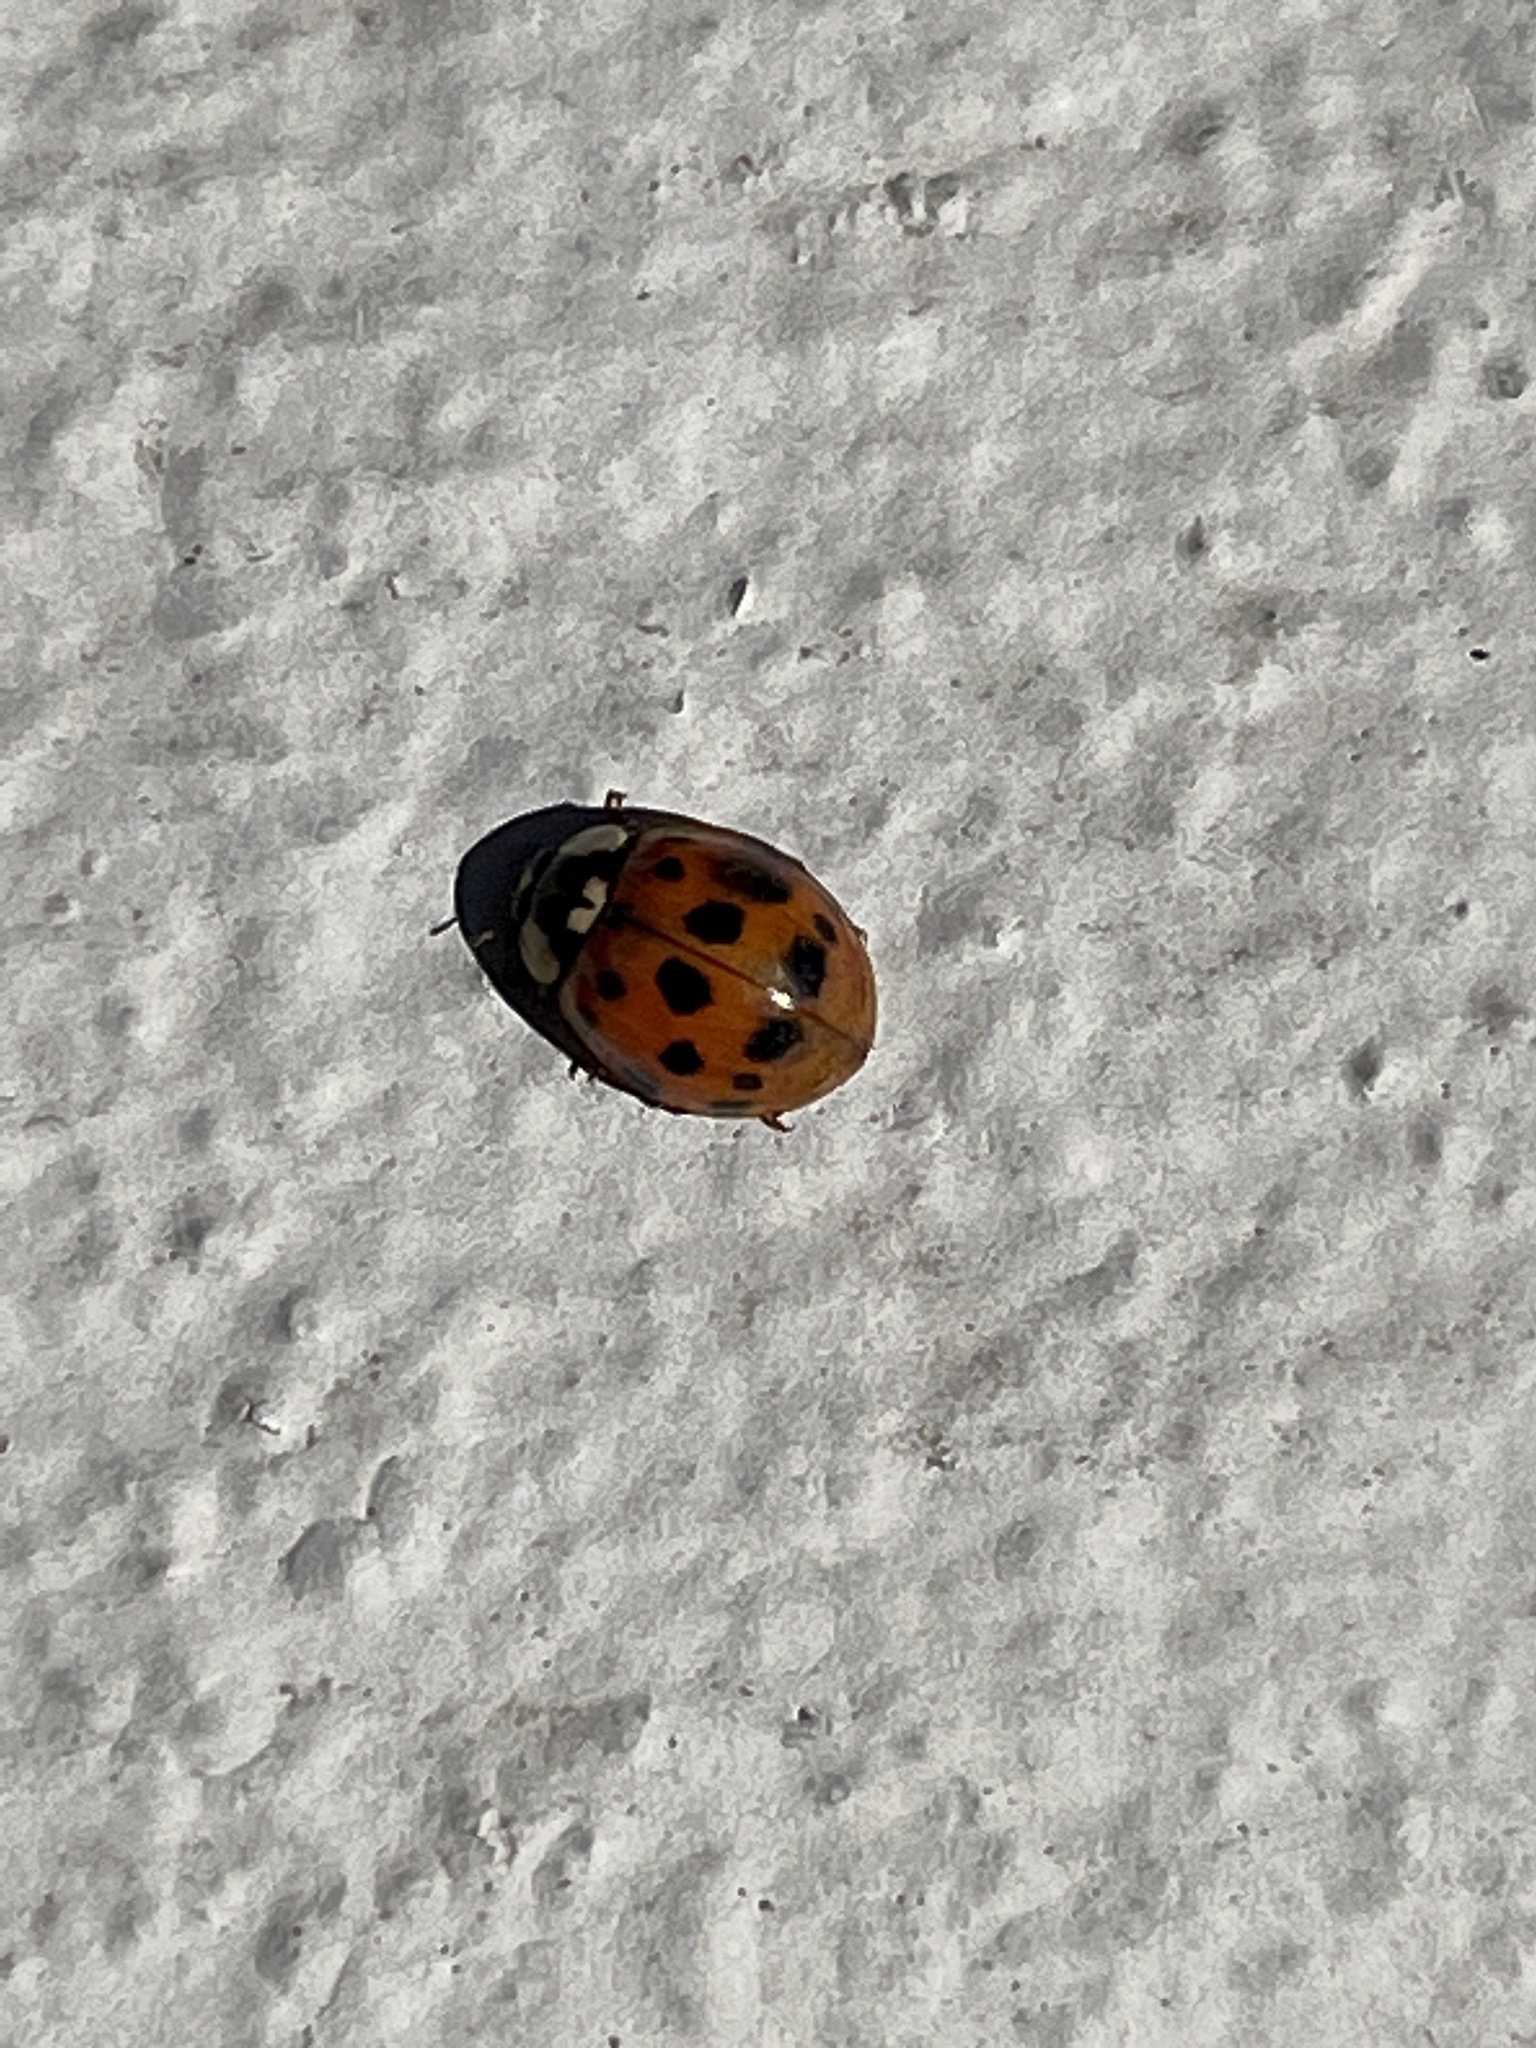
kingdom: Animalia
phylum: Arthropoda
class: Insecta
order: Coleoptera
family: Coccinellidae
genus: Harmonia
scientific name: Harmonia axyridis
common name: Harlequin ladybird
